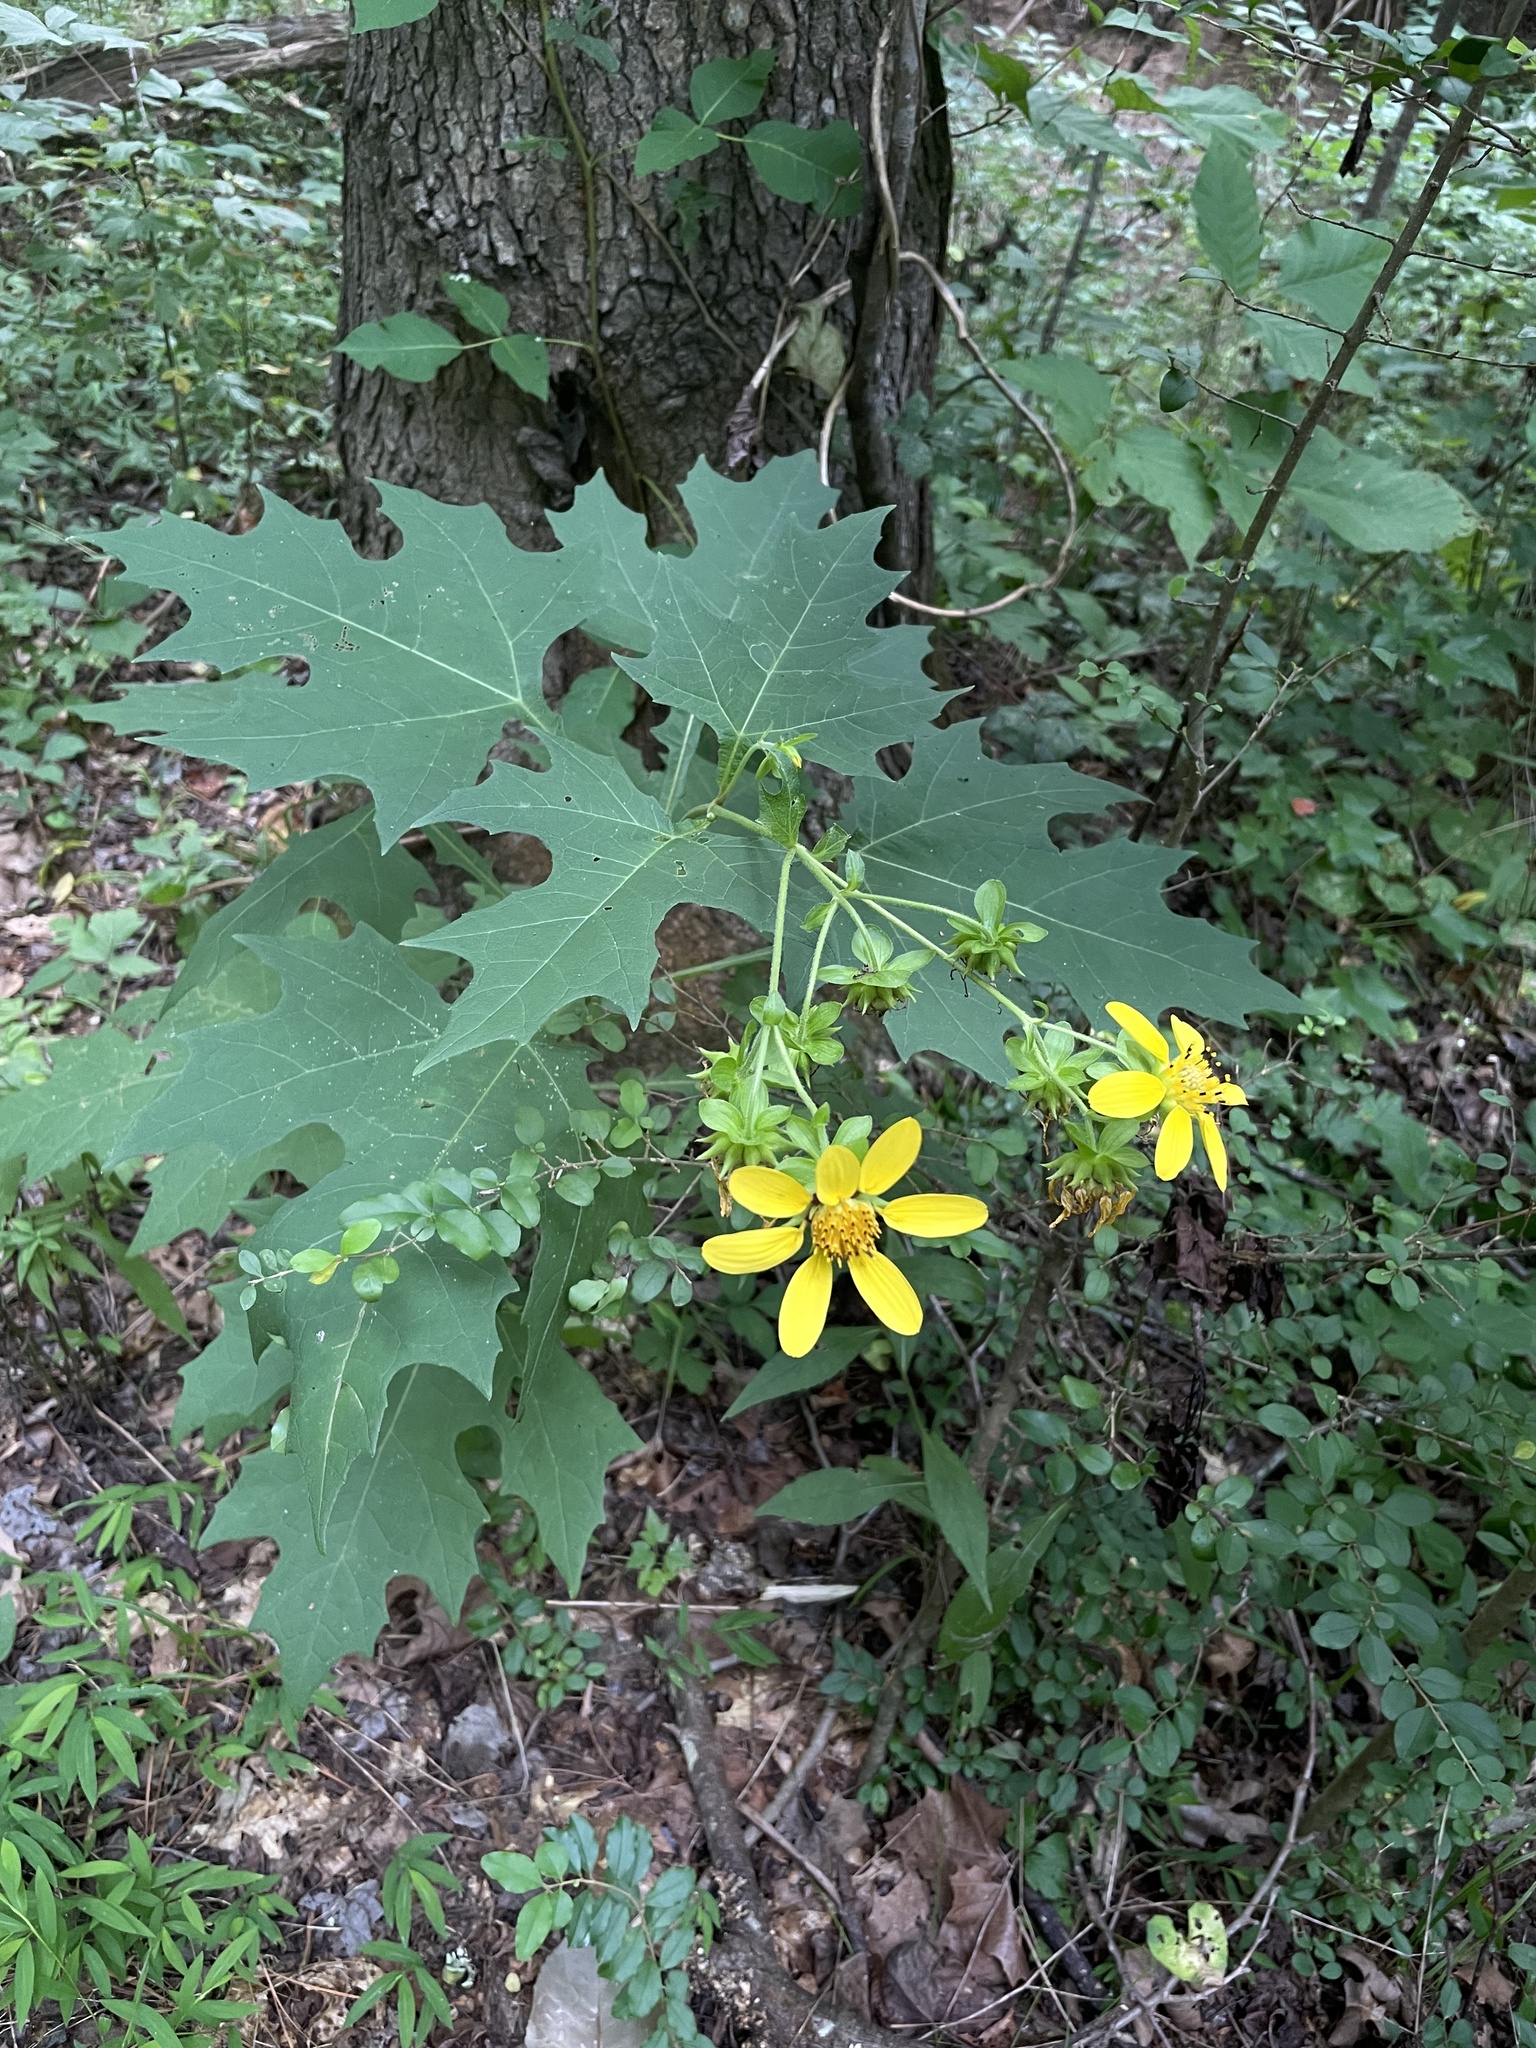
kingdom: Plantae
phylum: Tracheophyta
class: Magnoliopsida
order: Asterales
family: Asteraceae
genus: Smallanthus
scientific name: Smallanthus uvedalia
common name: Bear's-foot
